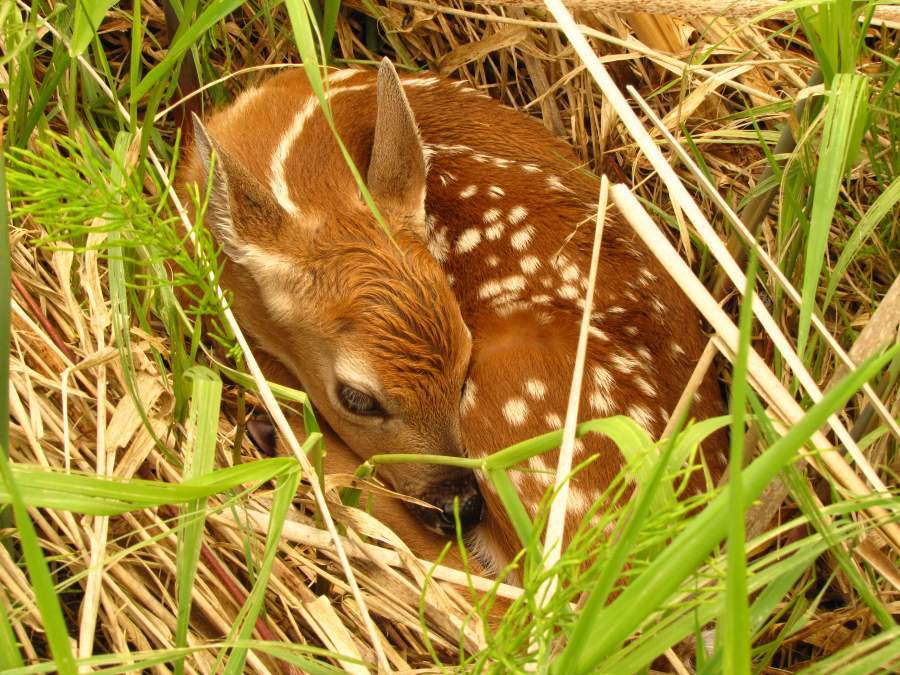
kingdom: Animalia
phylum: Chordata
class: Mammalia
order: Artiodactyla
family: Cervidae
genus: Odocoileus
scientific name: Odocoileus virginianus
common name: White-tailed deer
